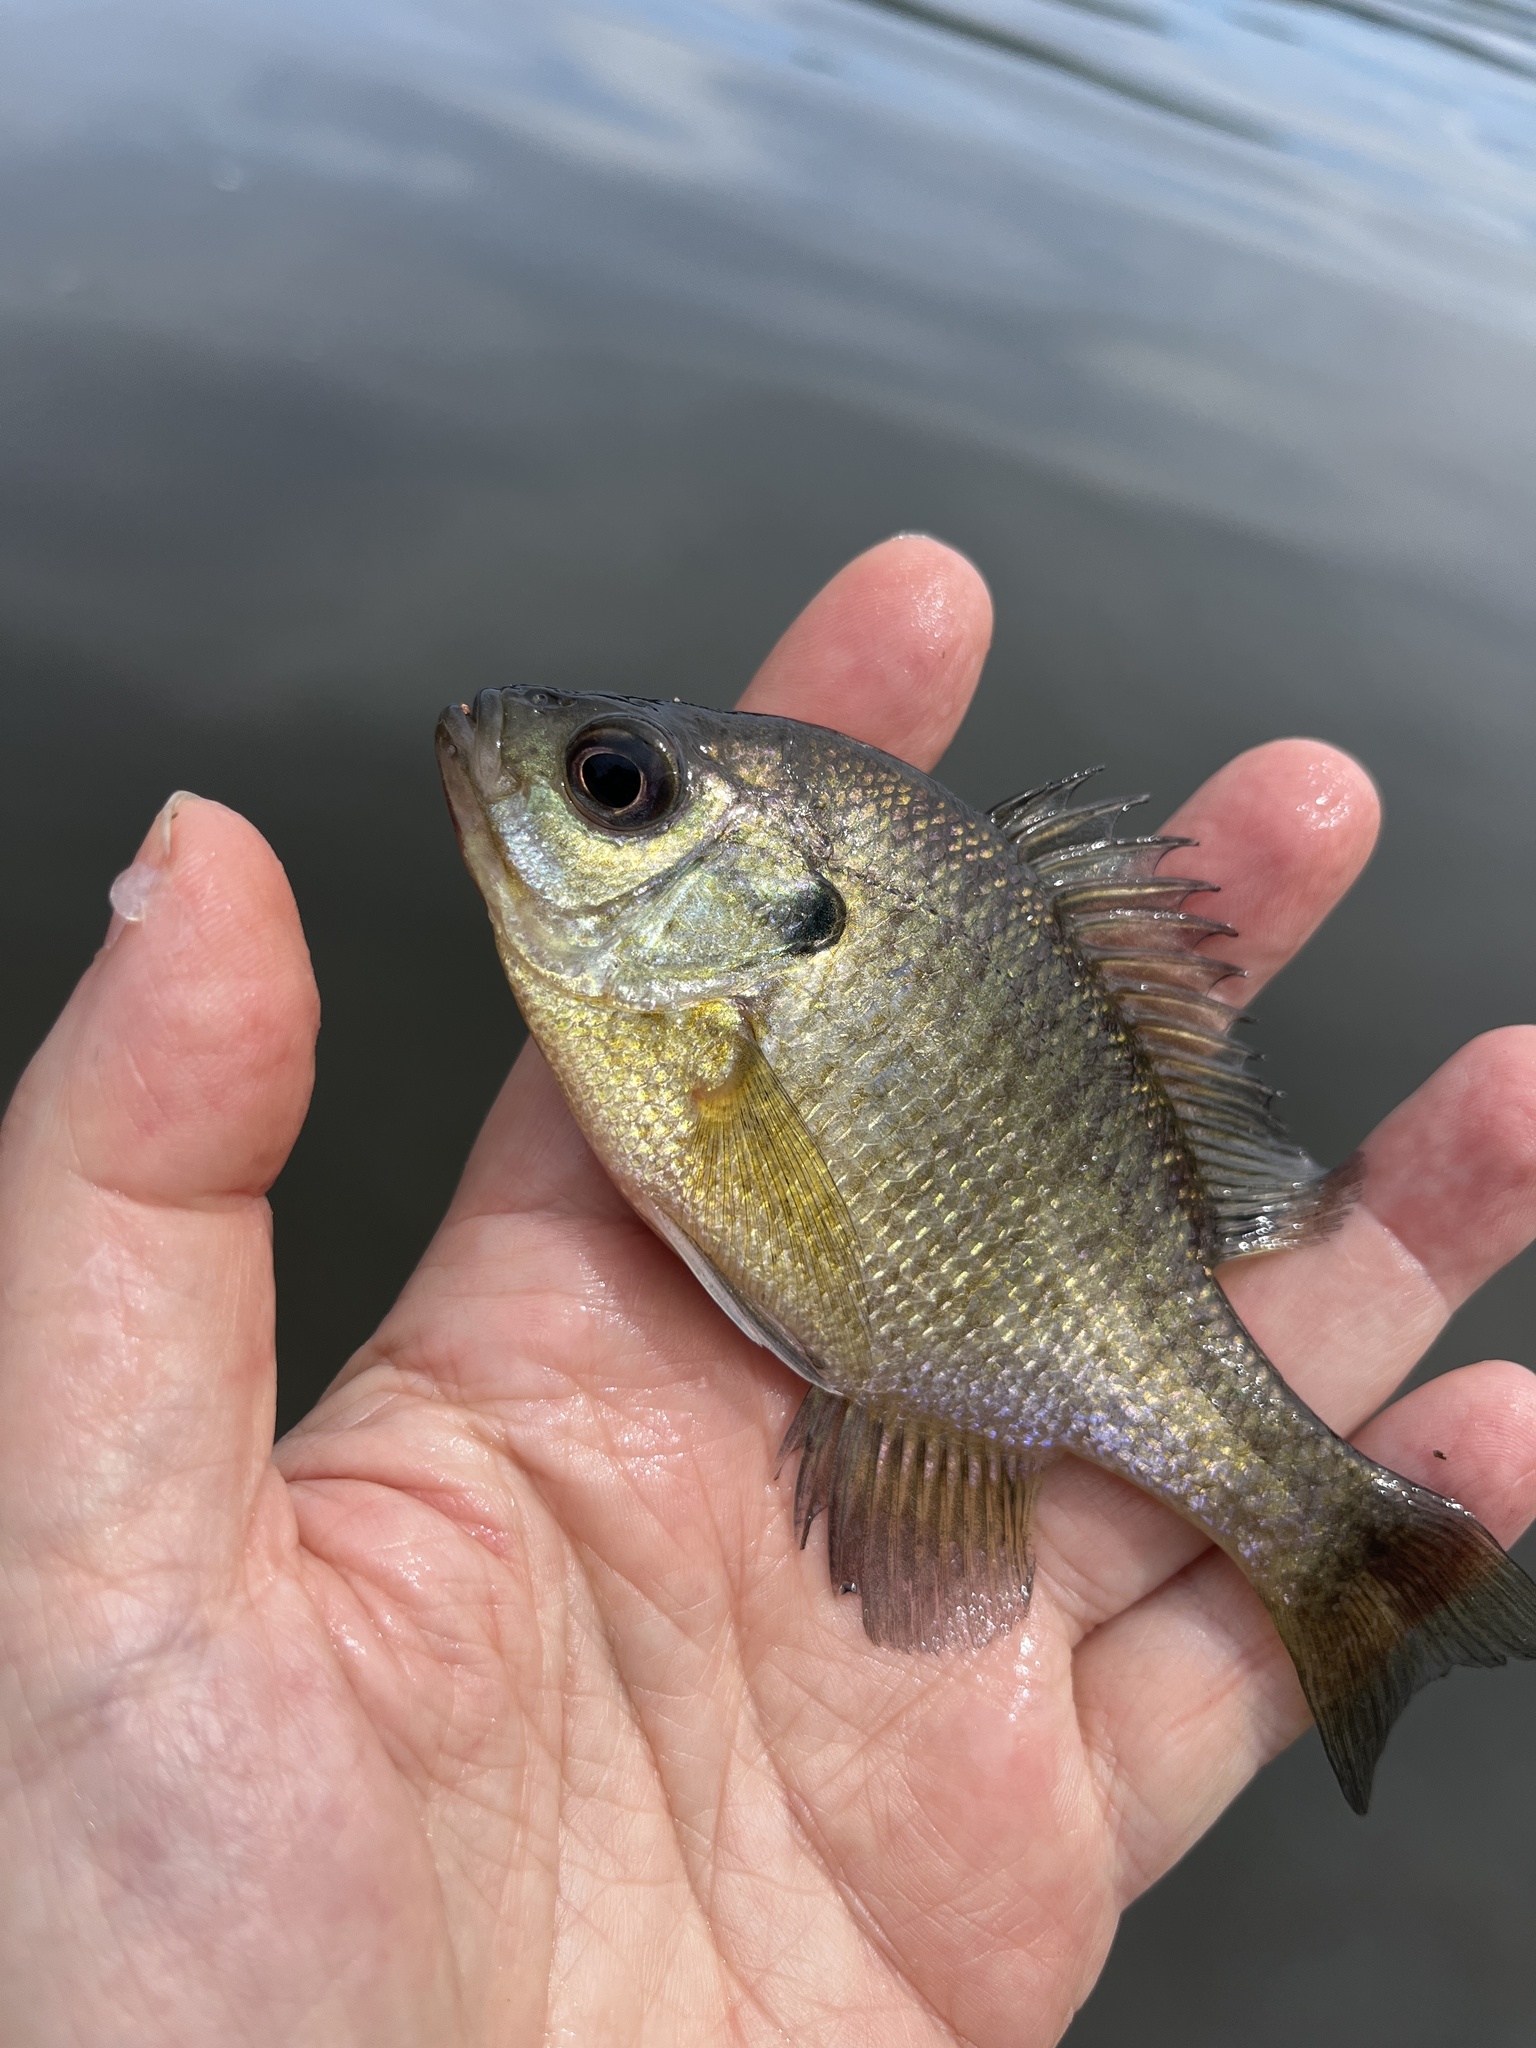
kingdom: Animalia
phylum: Chordata
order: Perciformes
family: Centrarchidae
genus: Lepomis
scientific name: Lepomis macrochirus
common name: Bluegill
